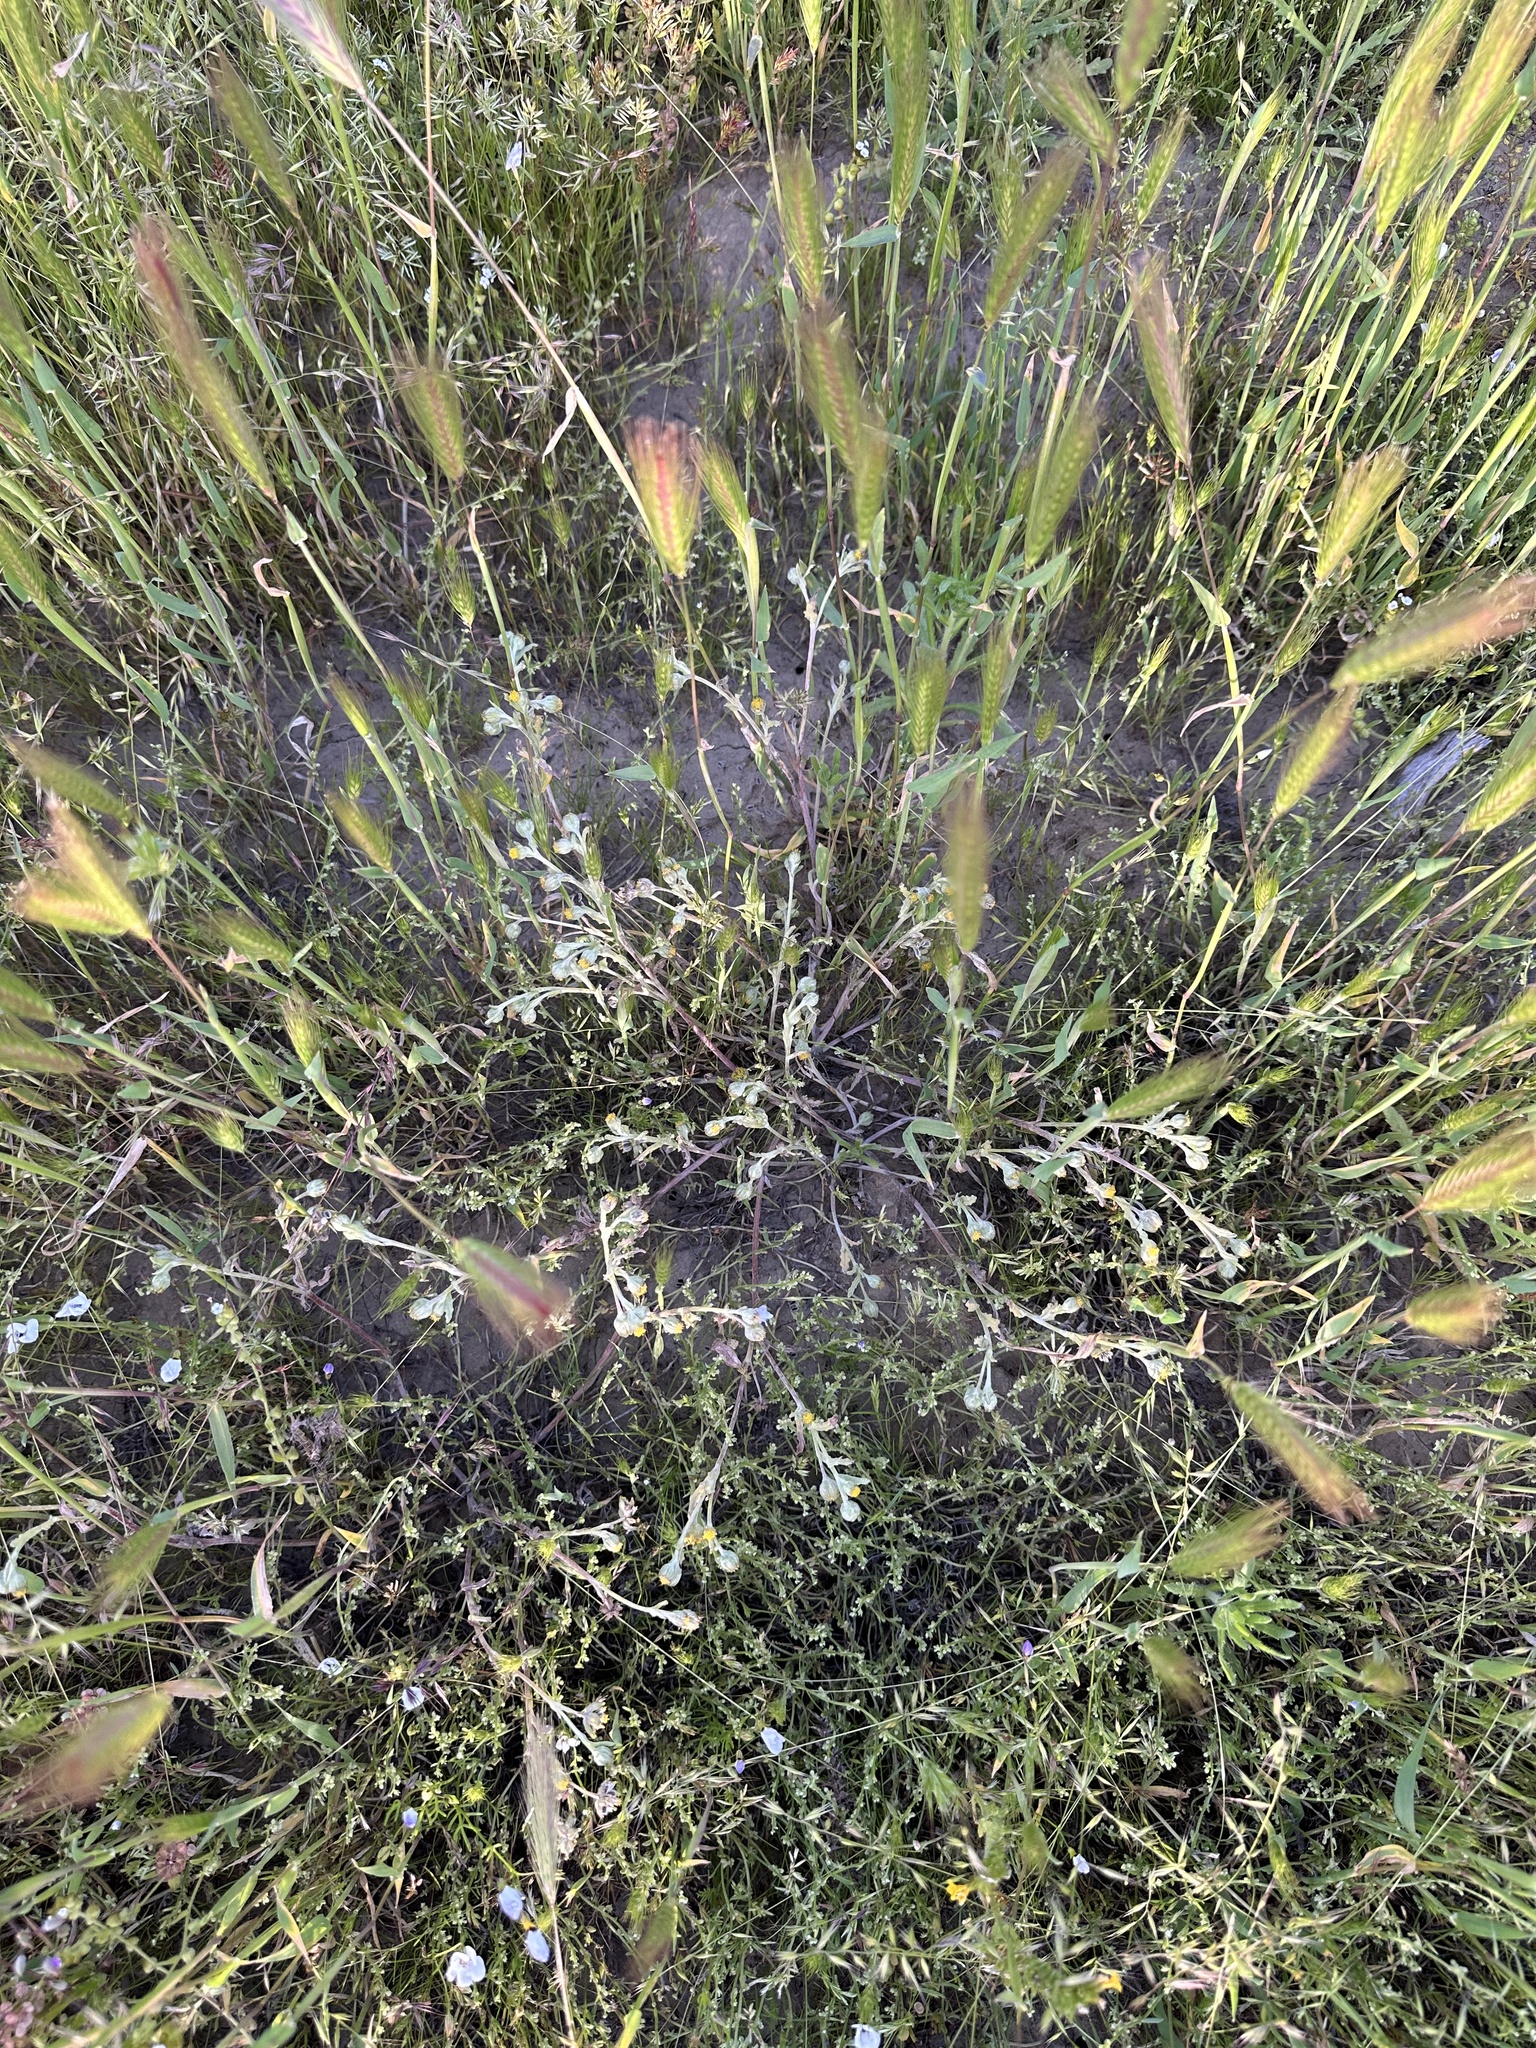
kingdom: Plantae
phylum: Tracheophyta
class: Magnoliopsida
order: Asterales
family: Asteraceae
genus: Monolopia
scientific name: Monolopia congdonii
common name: San joaquin woolly-threads
